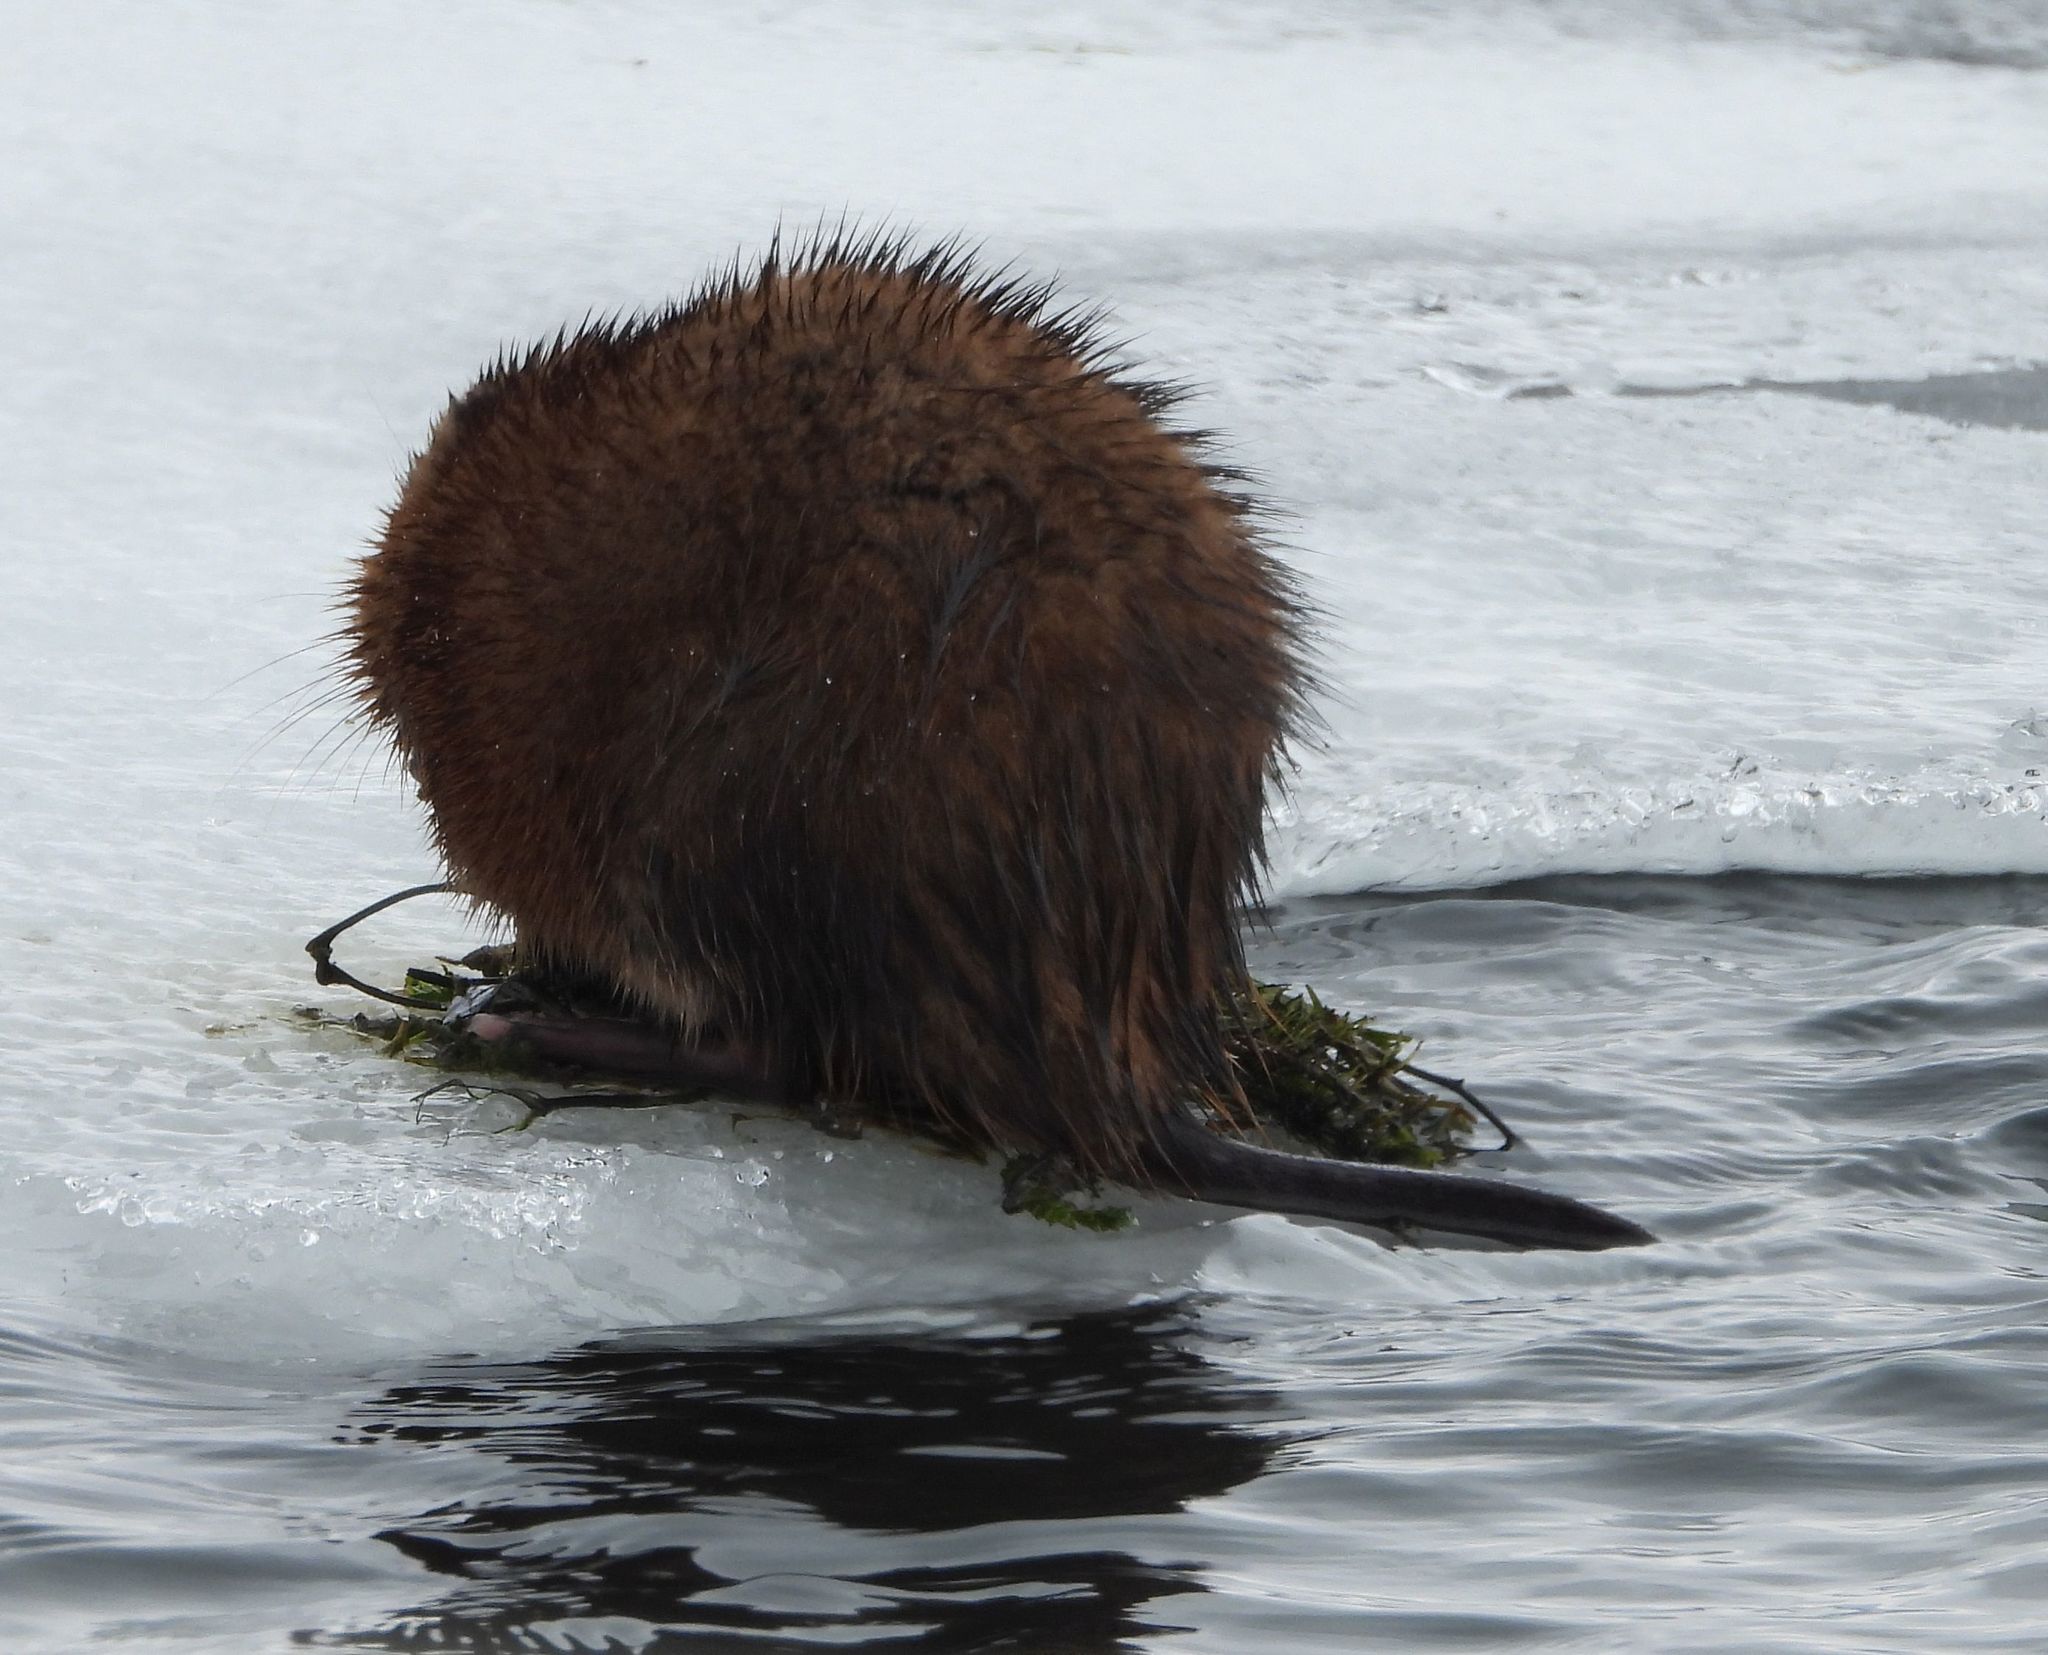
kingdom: Animalia
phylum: Chordata
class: Mammalia
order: Rodentia
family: Cricetidae
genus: Ondatra
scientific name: Ondatra zibethicus
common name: Muskrat
